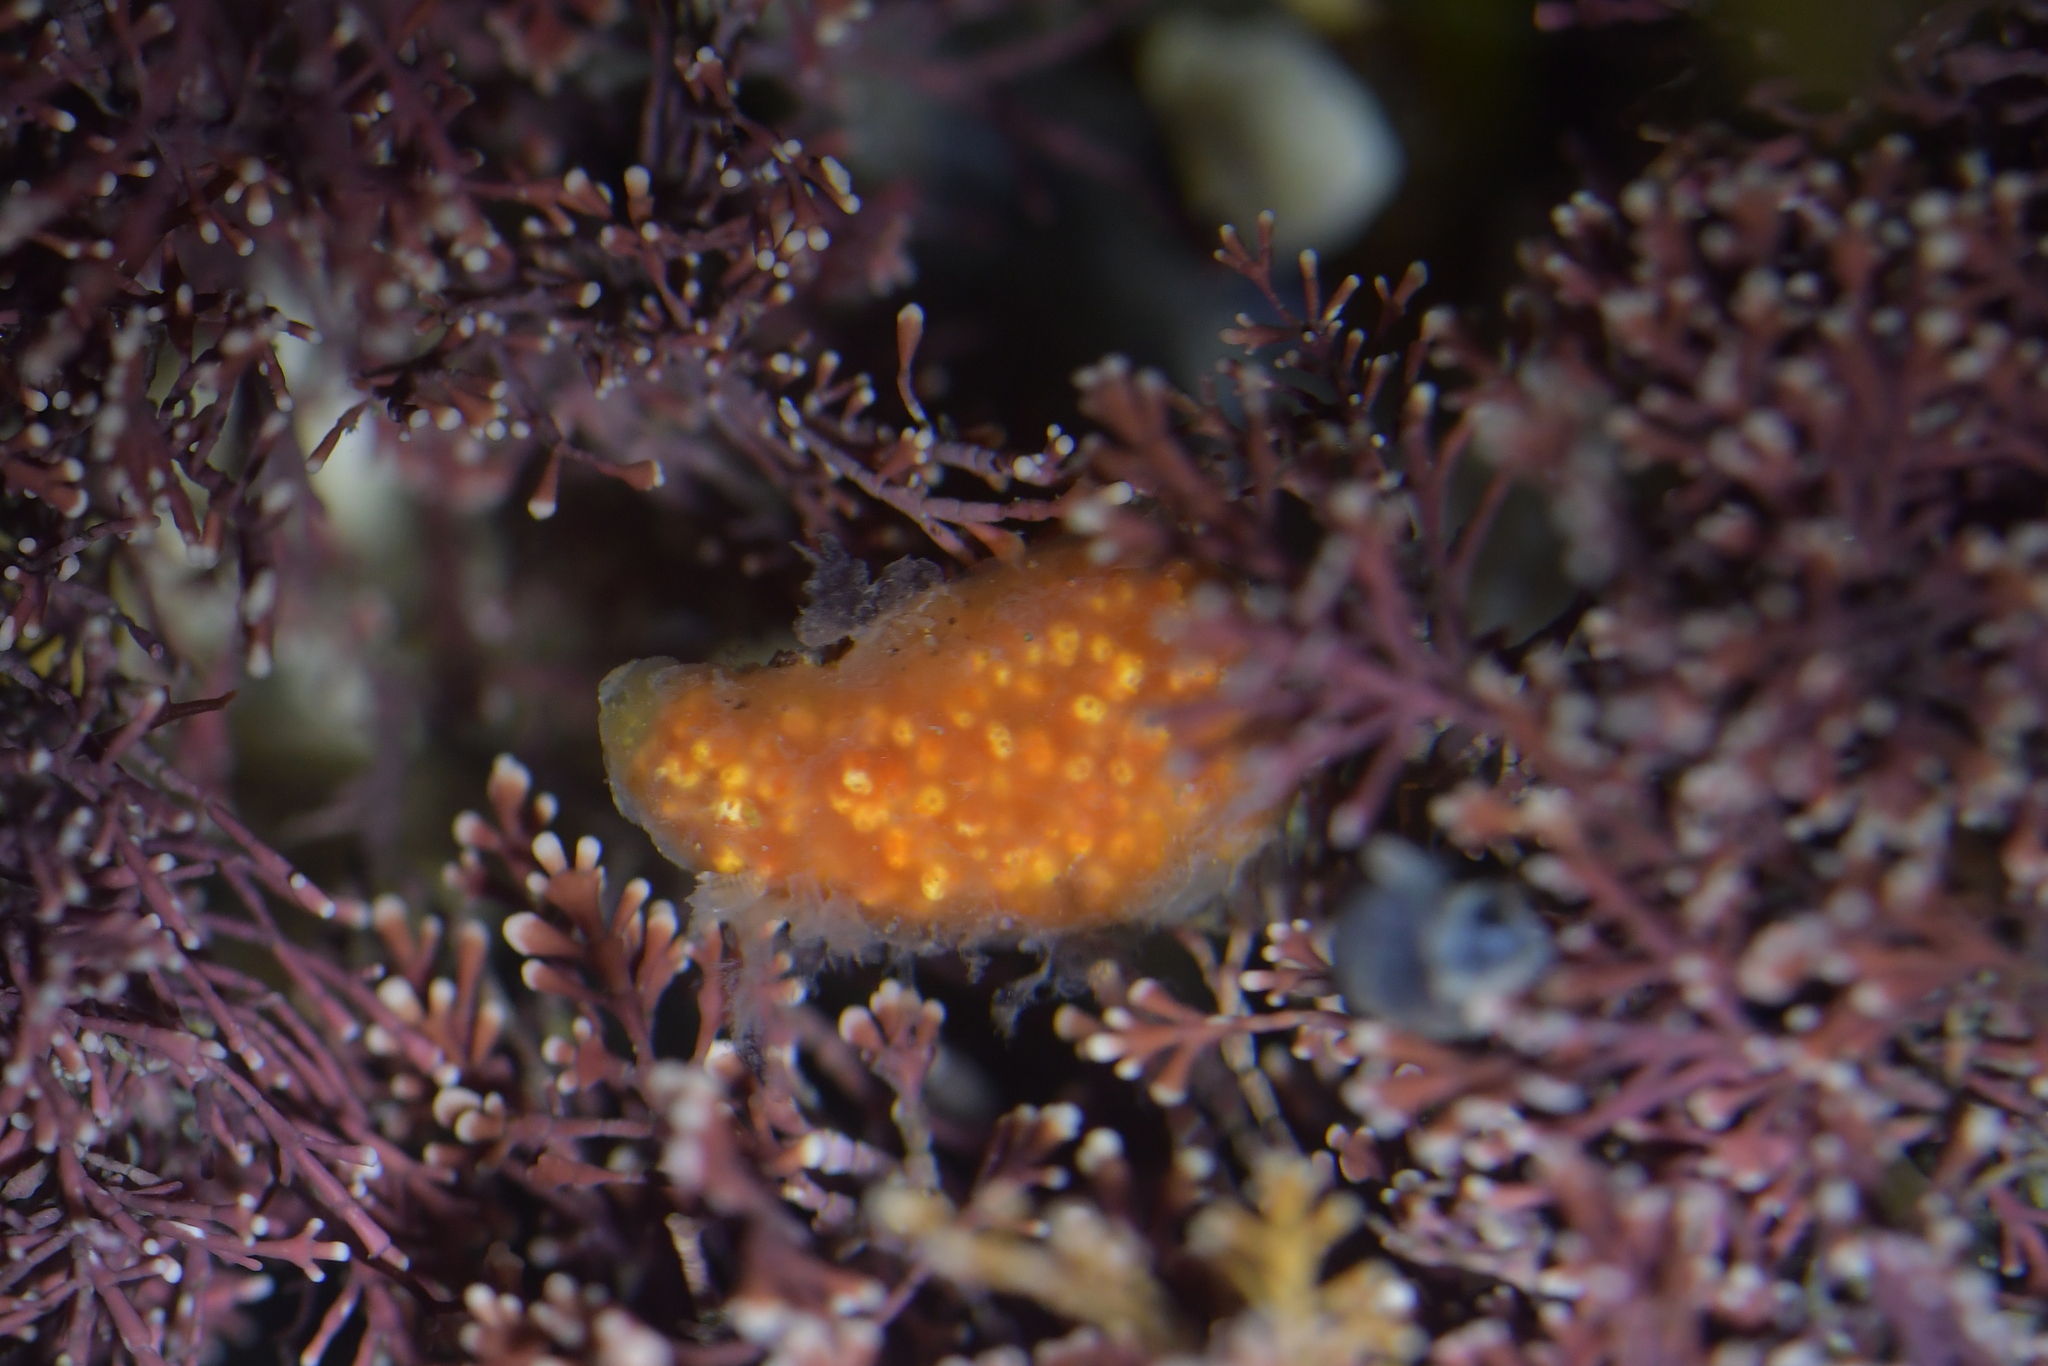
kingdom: Animalia
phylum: Chordata
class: Ascidiacea
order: Aplousobranchia
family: Polyclinidae
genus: Aplidium
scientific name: Aplidium benhami
